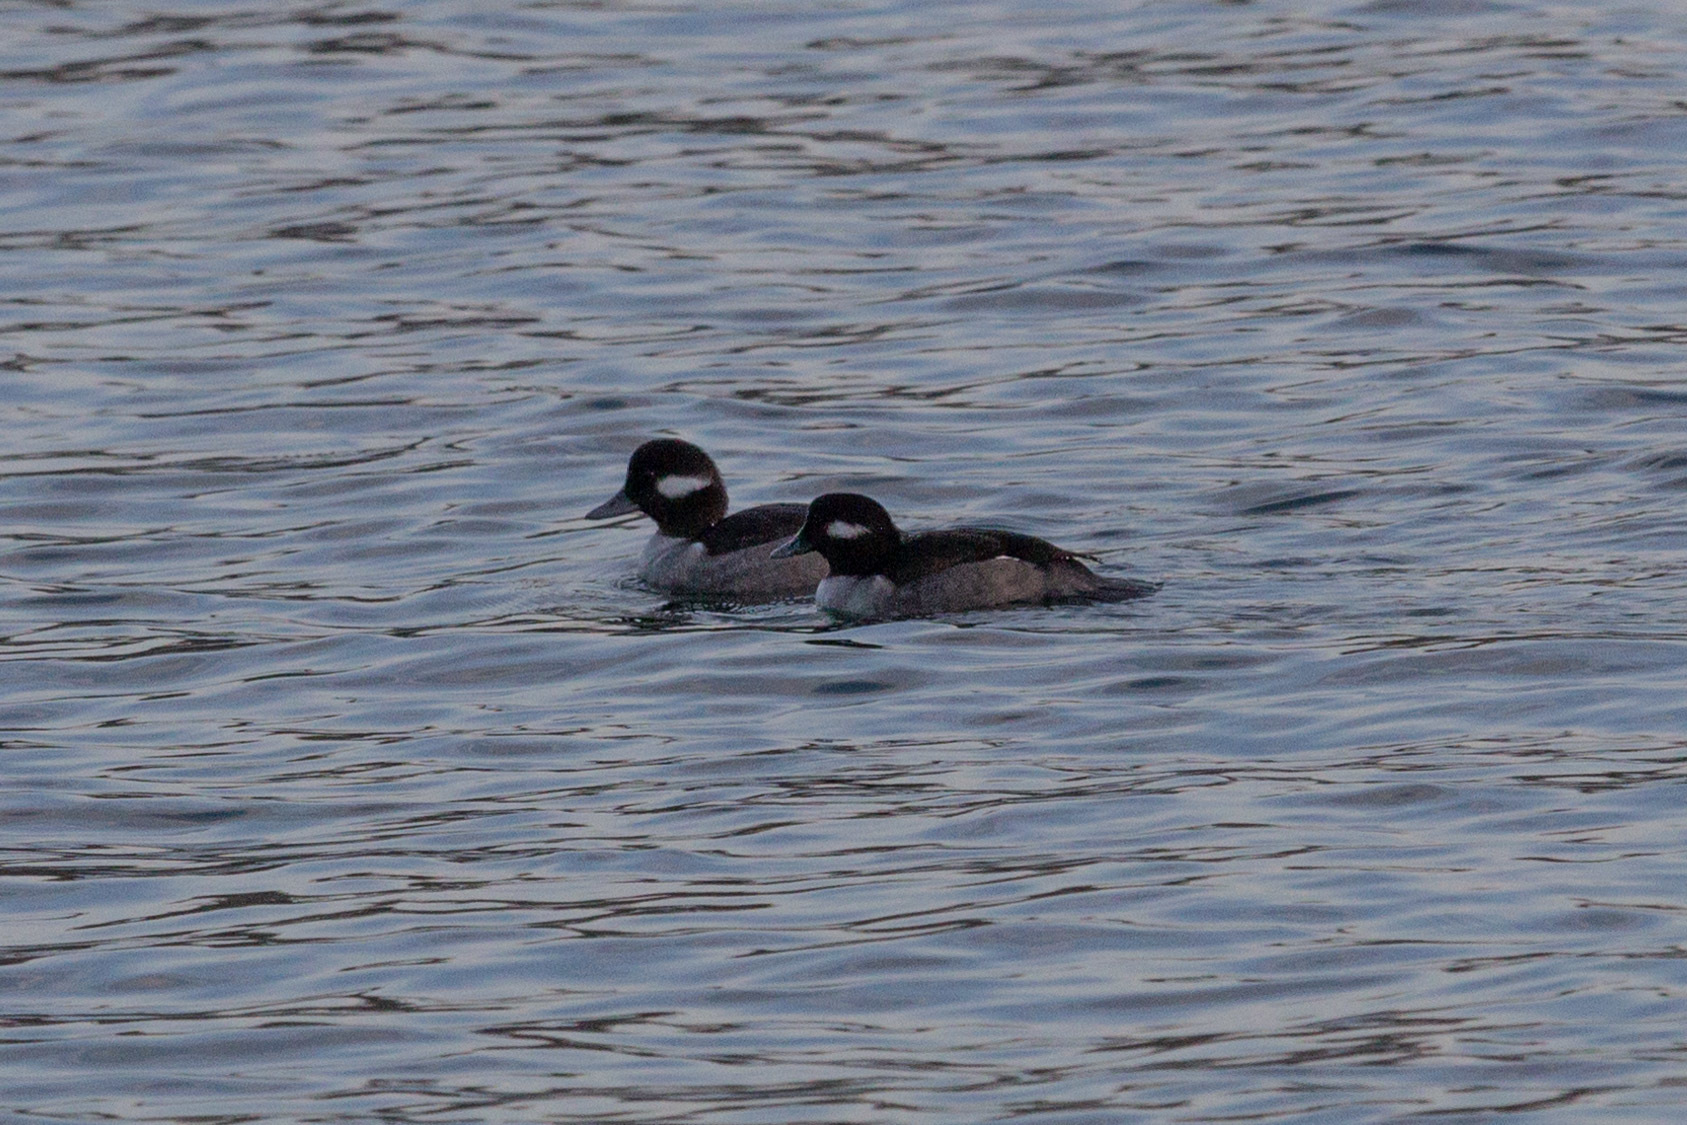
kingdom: Animalia
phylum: Chordata
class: Aves
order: Anseriformes
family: Anatidae
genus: Bucephala
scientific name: Bucephala albeola
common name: Bufflehead
